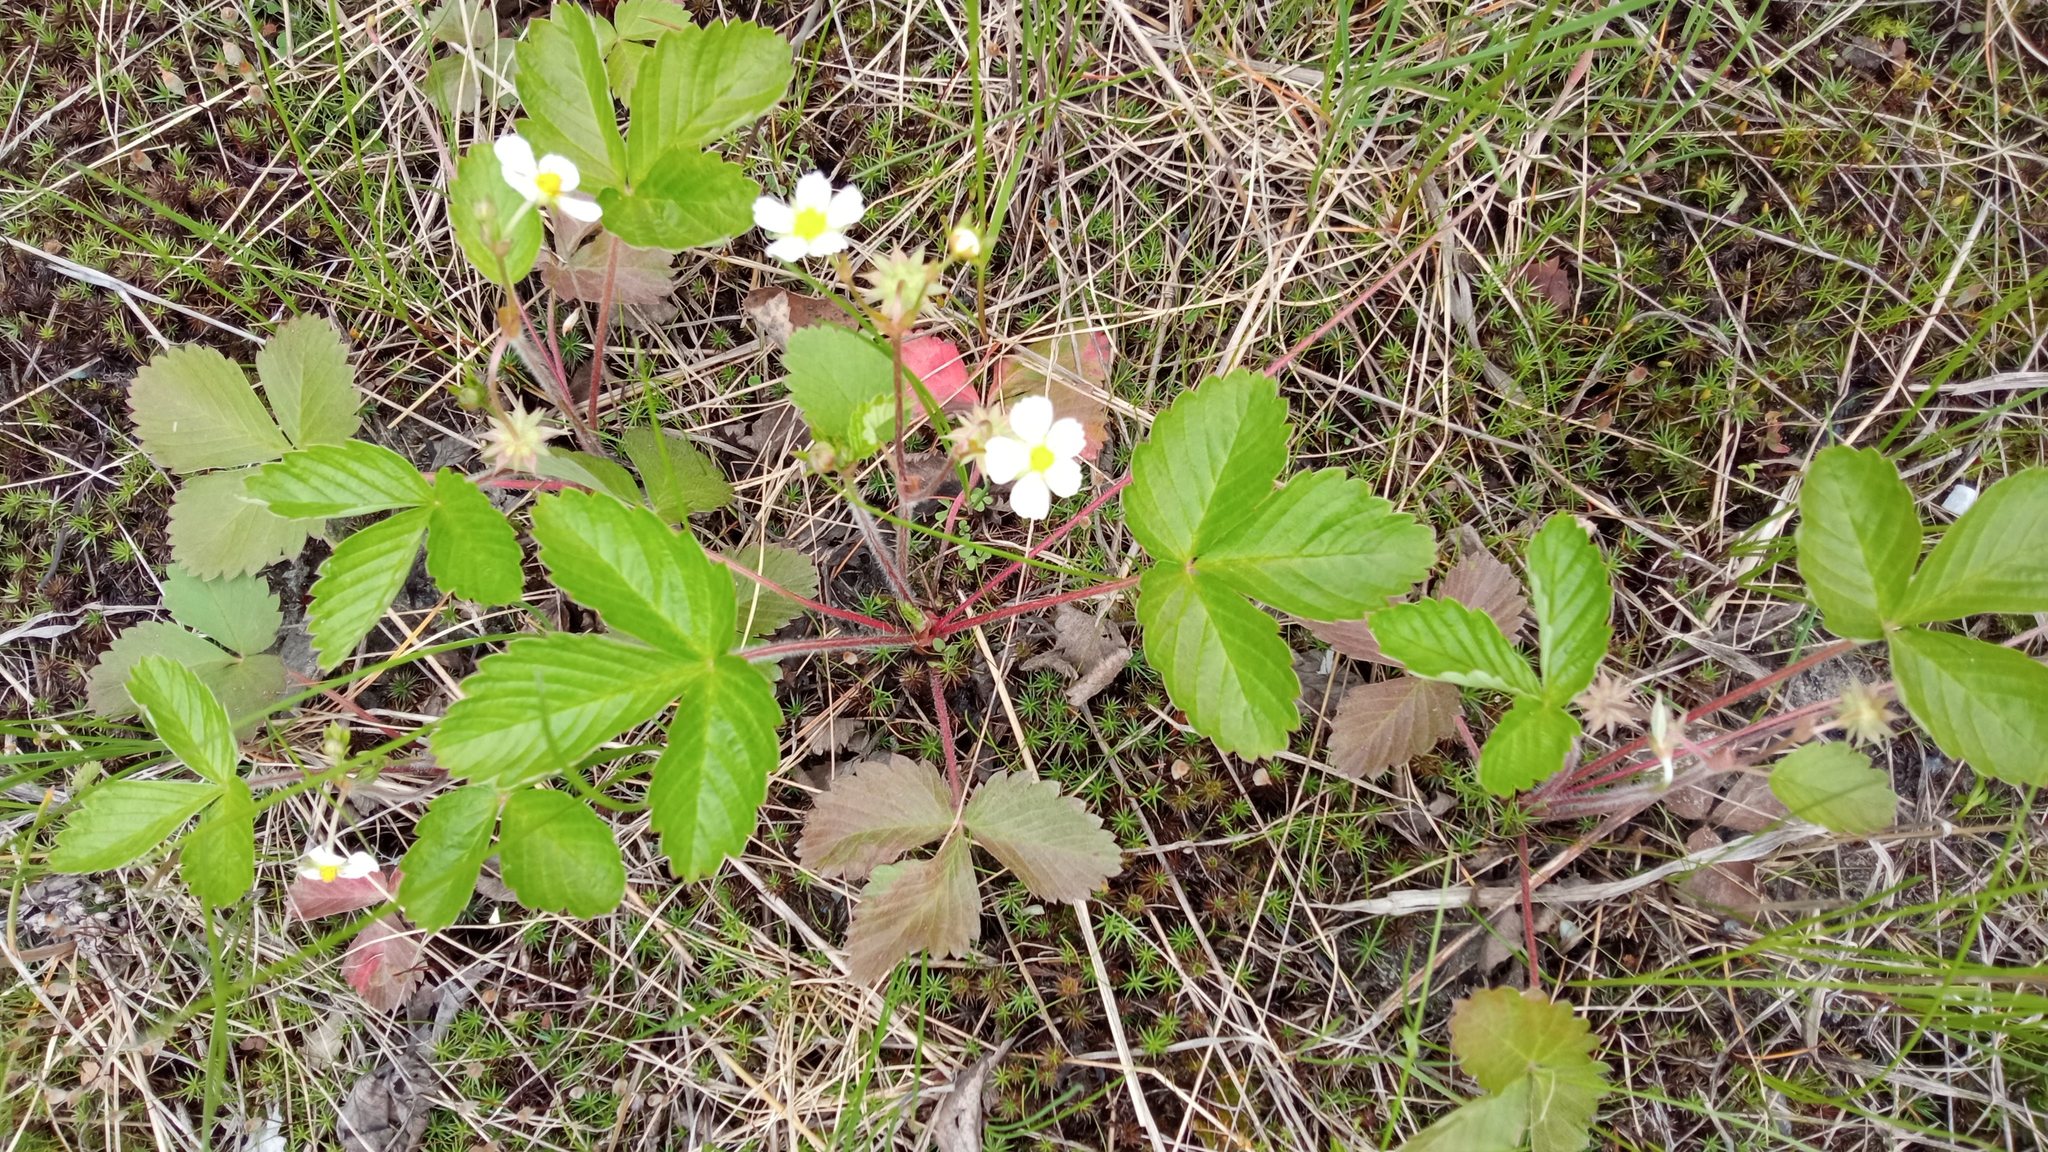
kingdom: Plantae
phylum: Tracheophyta
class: Magnoliopsida
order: Rosales
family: Rosaceae
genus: Fragaria
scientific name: Fragaria vesca
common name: Wild strawberry
